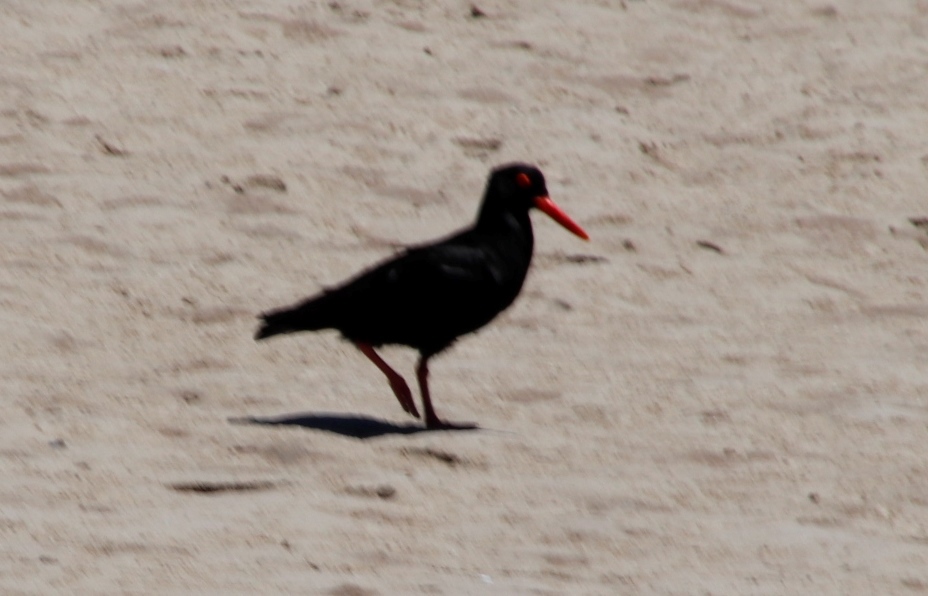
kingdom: Animalia
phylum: Chordata
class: Aves
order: Charadriiformes
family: Haematopodidae
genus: Haematopus
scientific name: Haematopus moquini
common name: African oystercatcher
